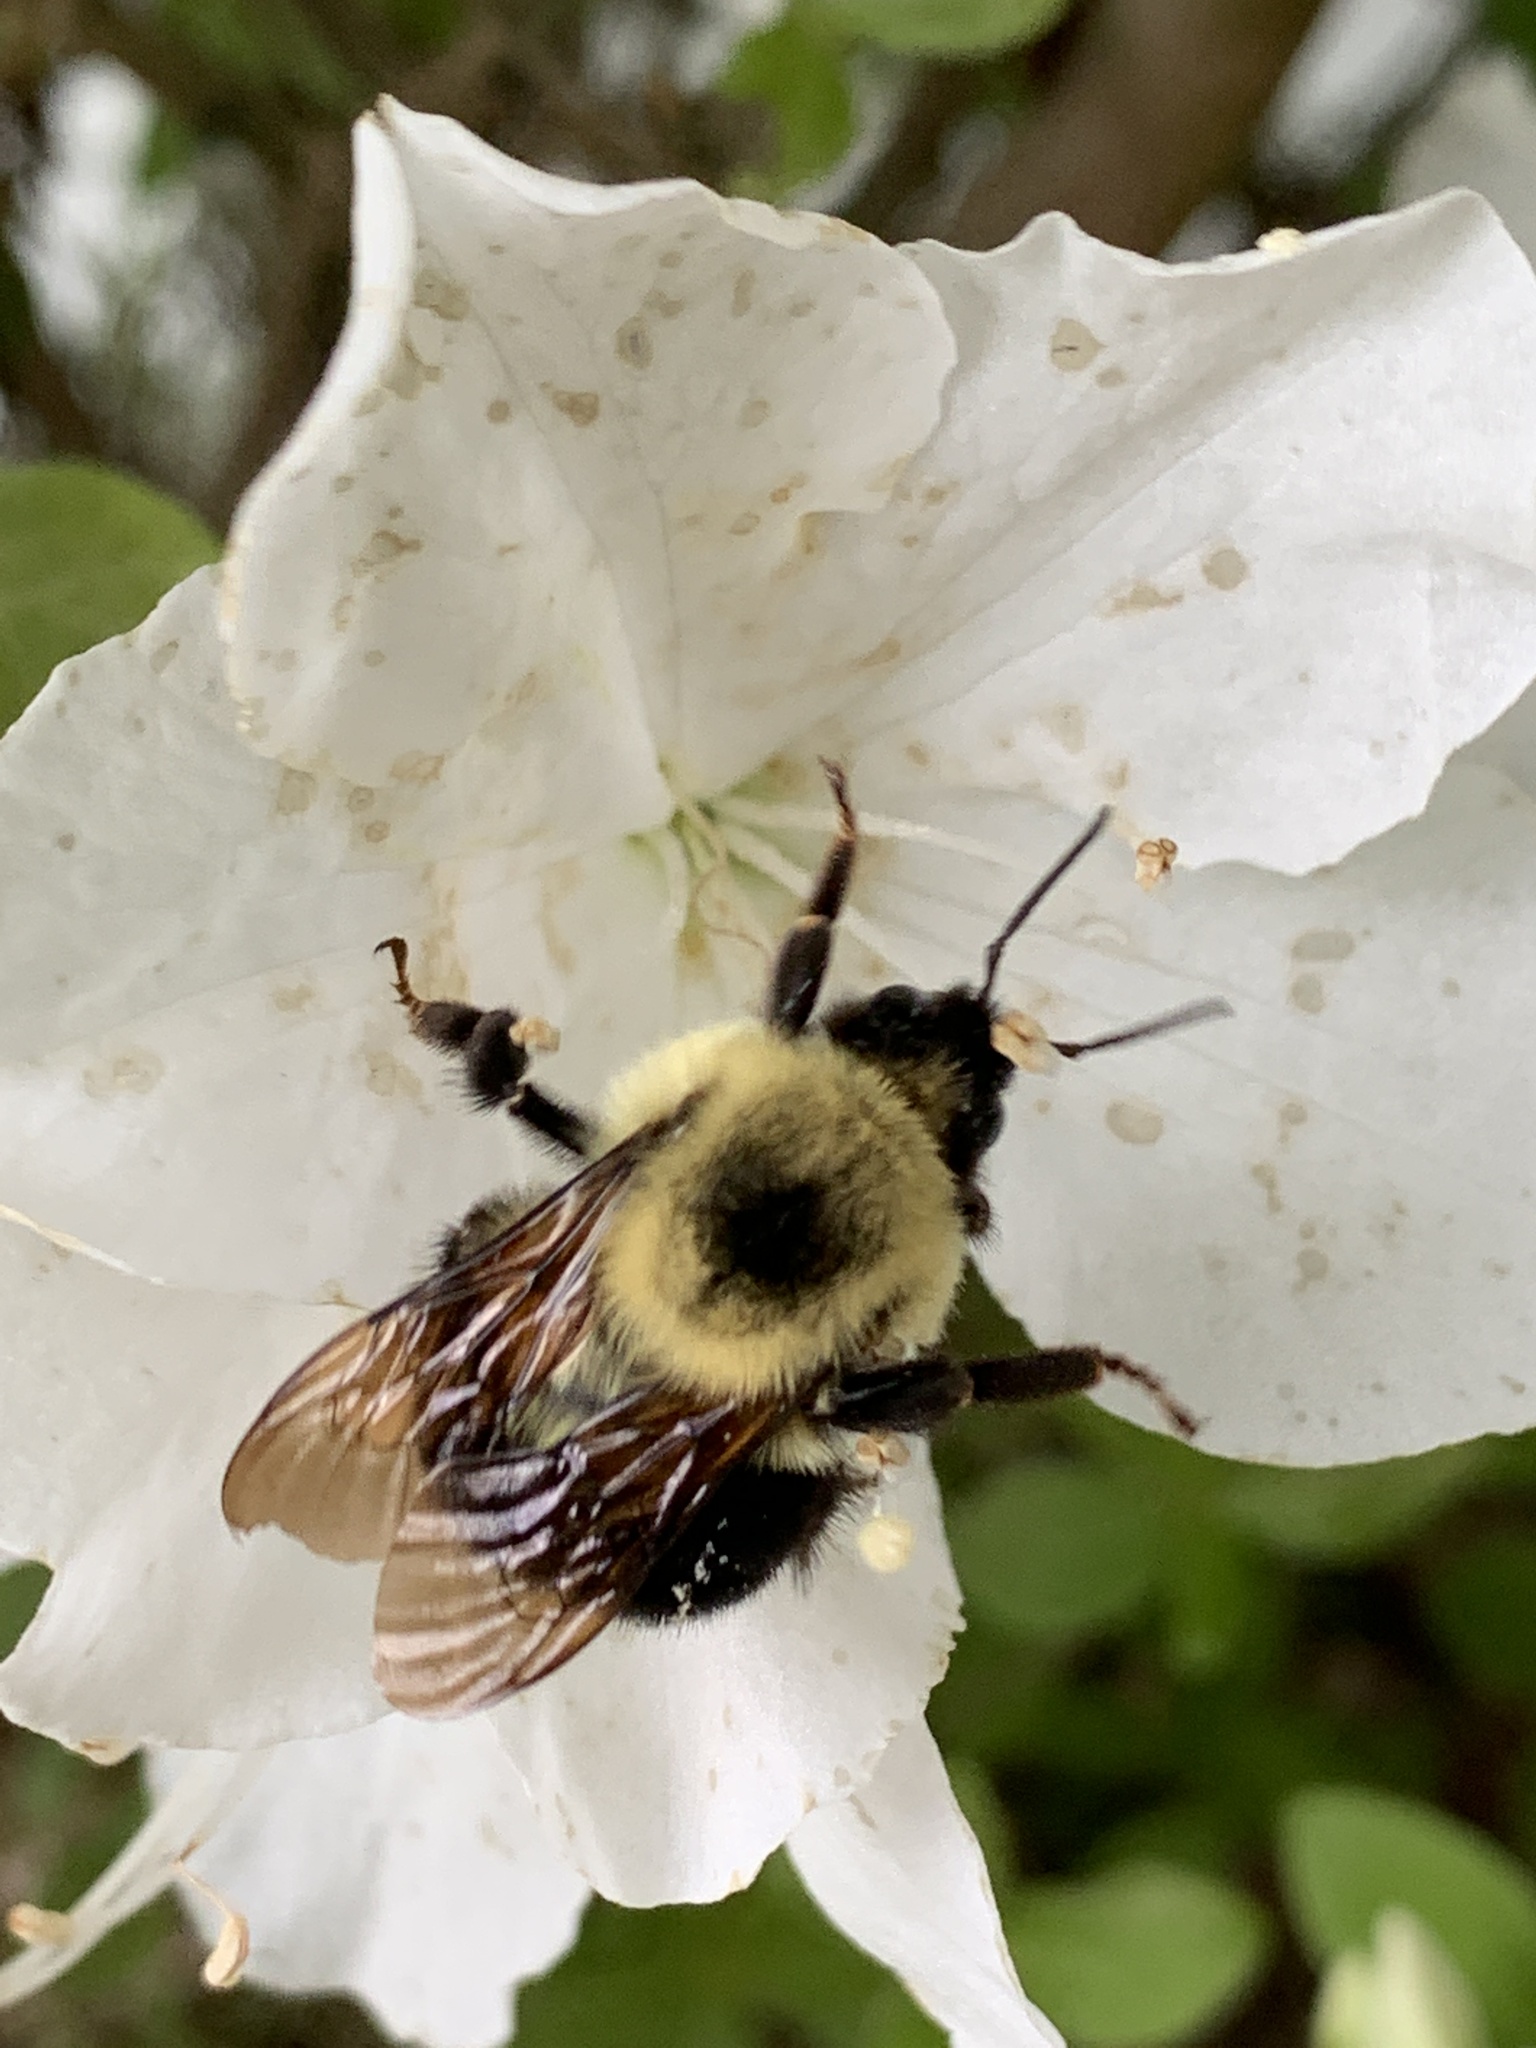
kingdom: Animalia
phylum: Arthropoda
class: Insecta
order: Hymenoptera
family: Apidae
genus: Bombus
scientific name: Bombus bimaculatus
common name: Two-spotted bumble bee
